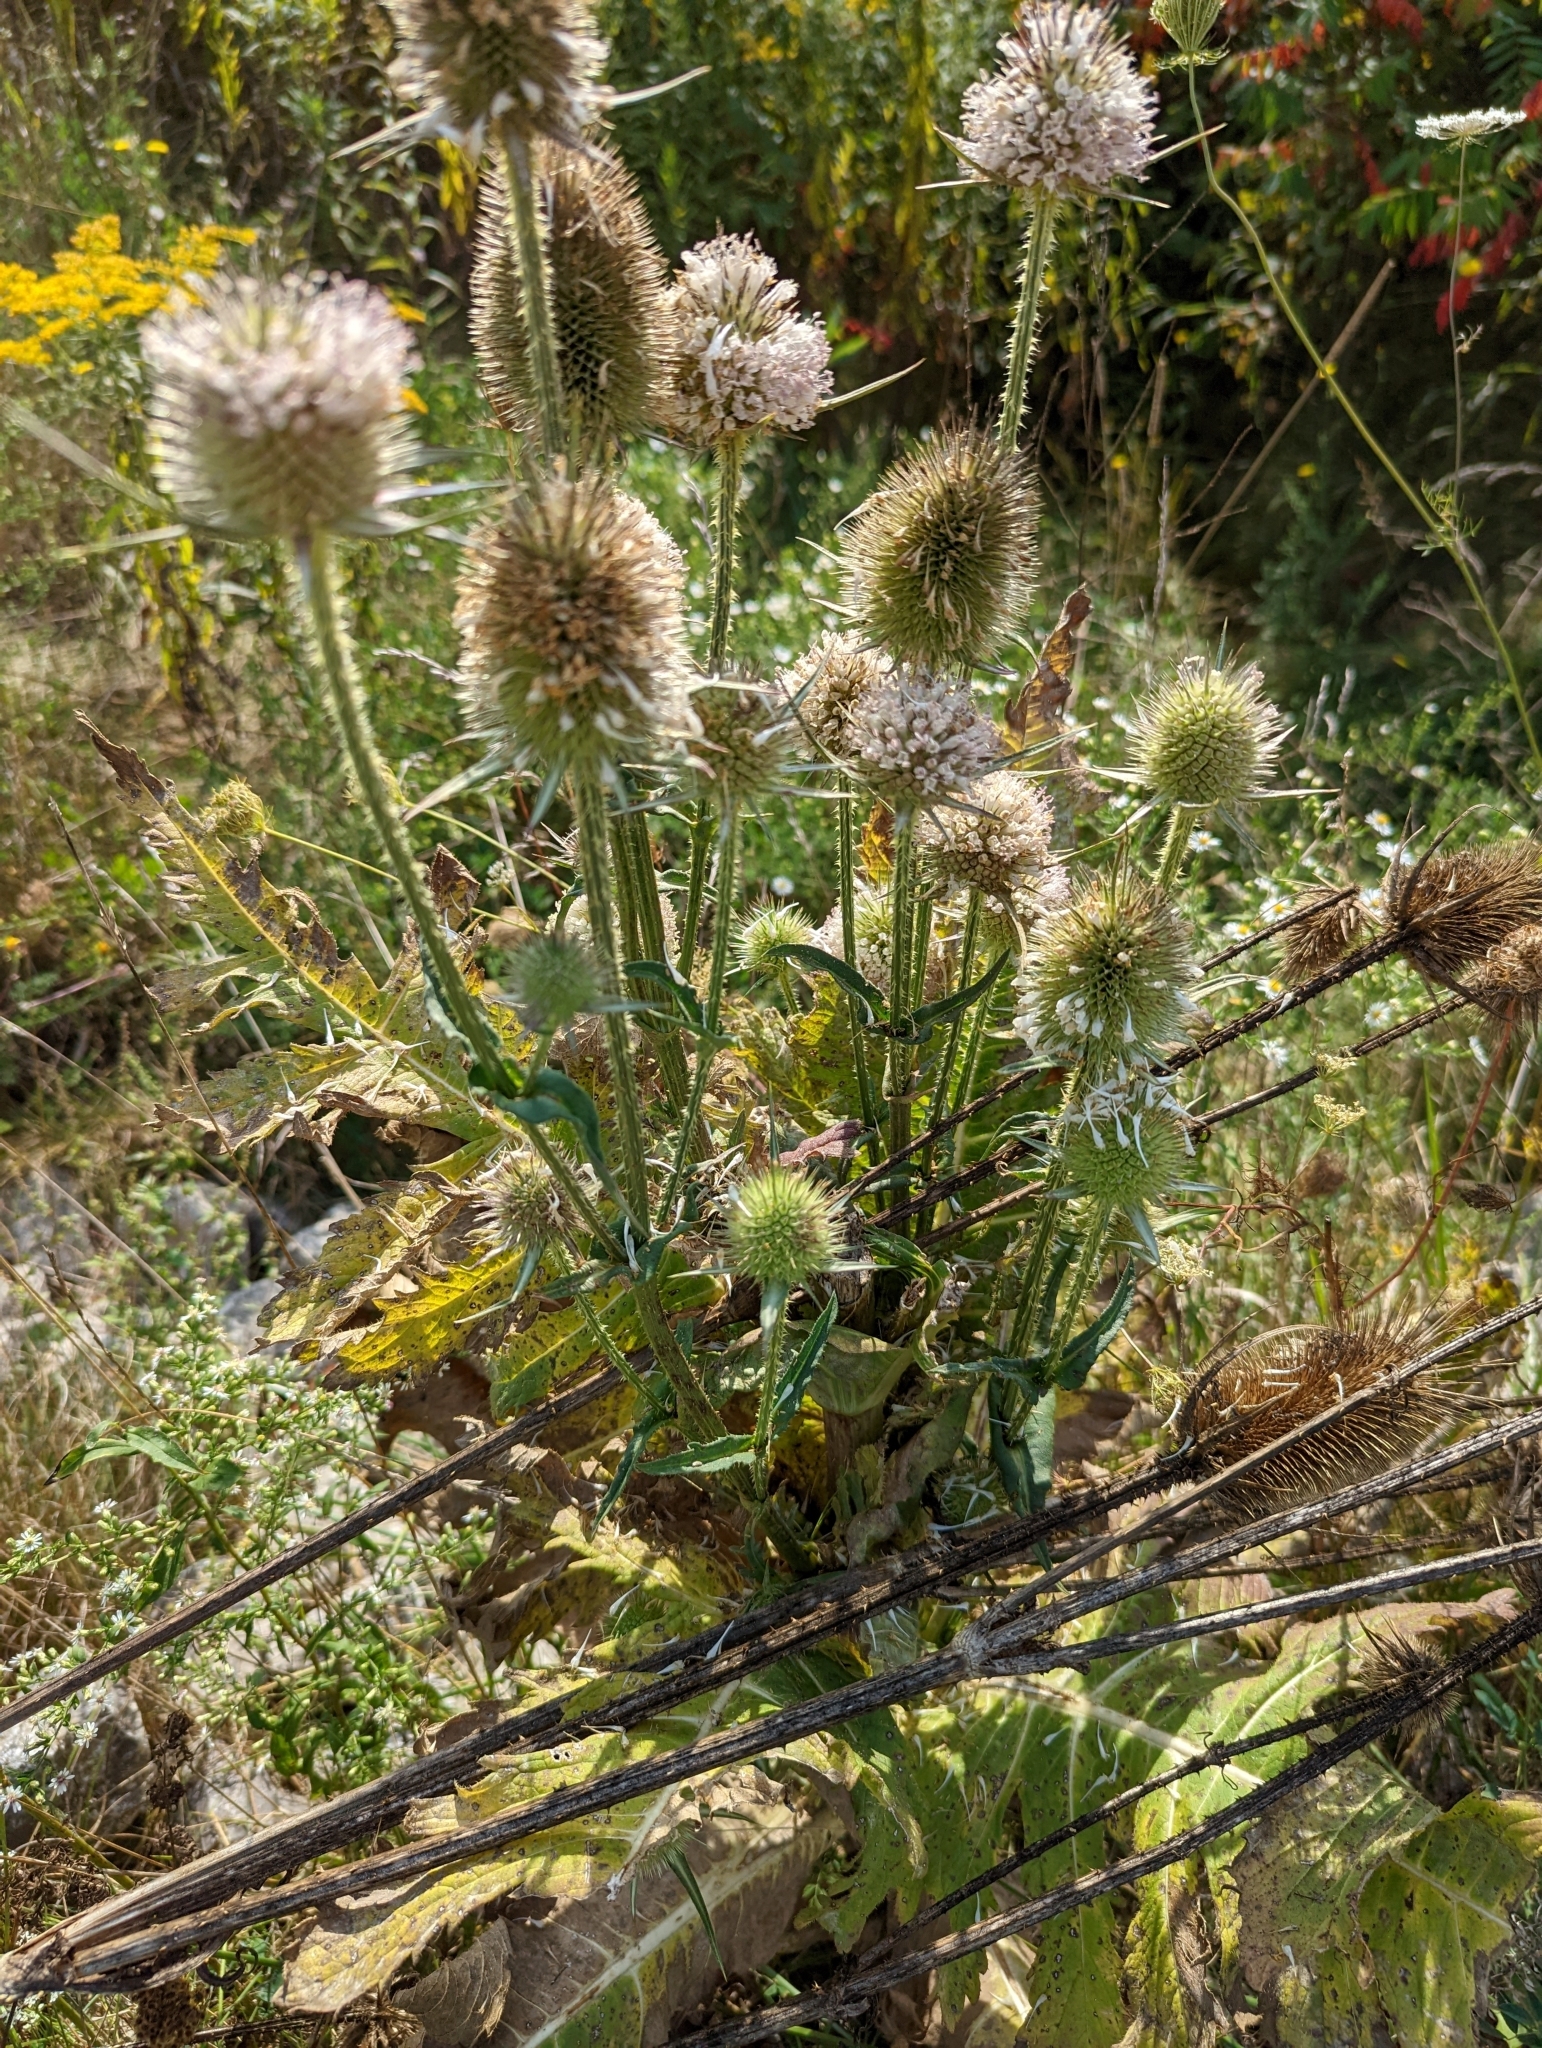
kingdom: Plantae
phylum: Tracheophyta
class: Magnoliopsida
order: Dipsacales
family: Caprifoliaceae
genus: Dipsacus
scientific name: Dipsacus laciniatus
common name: Cut-leaved teasel
